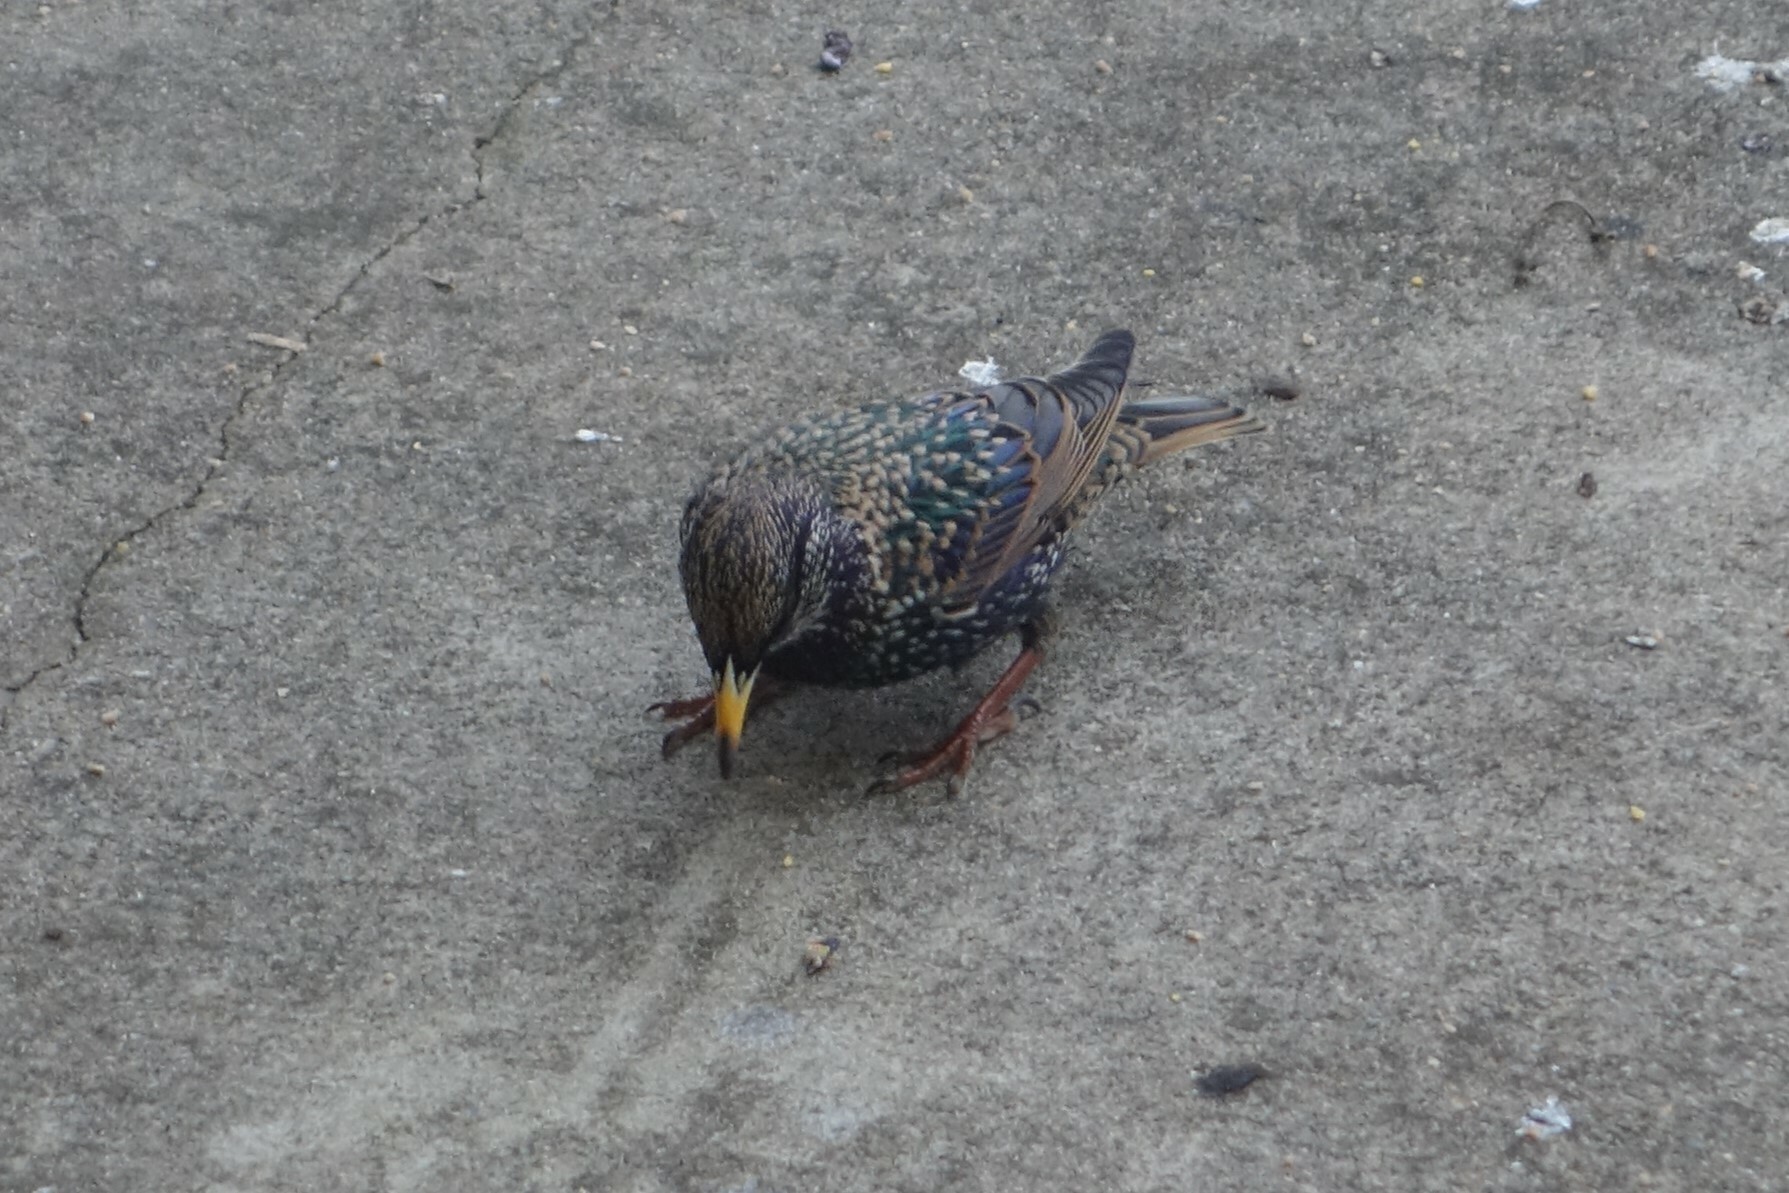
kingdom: Animalia
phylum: Chordata
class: Aves
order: Passeriformes
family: Sturnidae
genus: Sturnus
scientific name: Sturnus vulgaris
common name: Common starling
